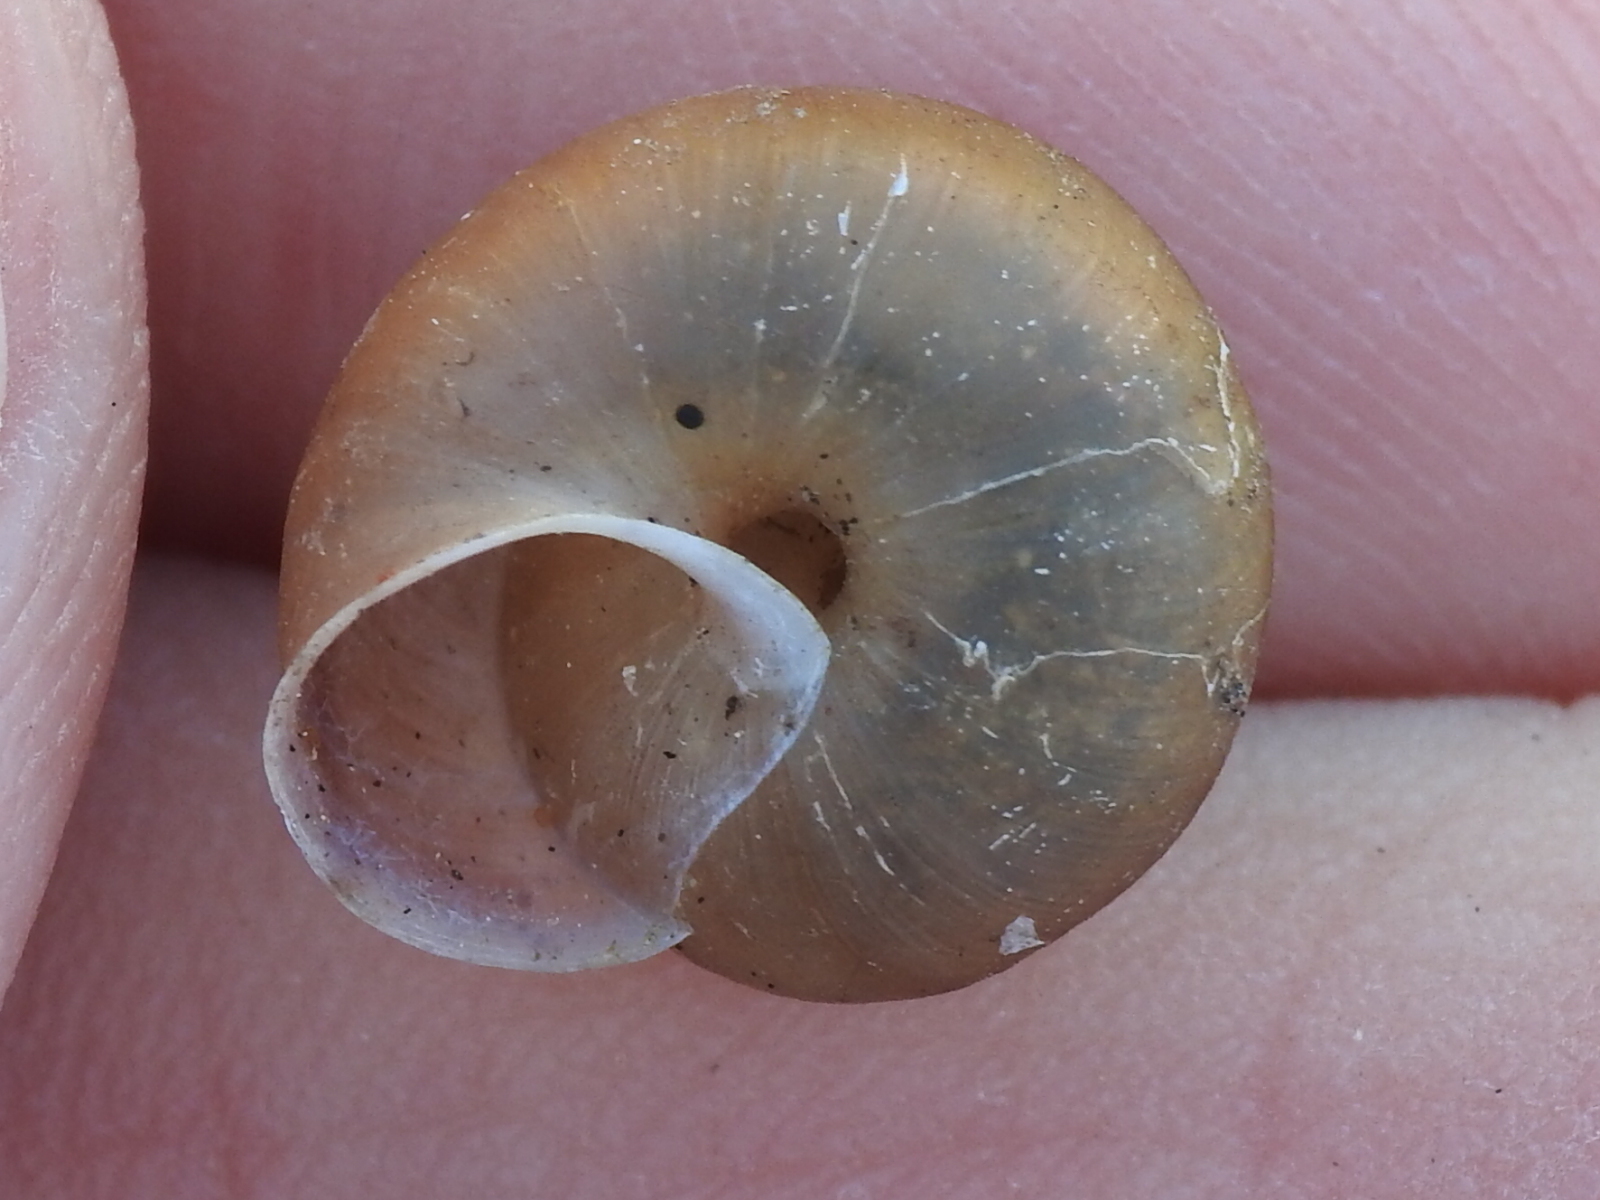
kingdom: Animalia
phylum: Mollusca
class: Gastropoda
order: Stylommatophora
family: Camaenidae
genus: Bradybaena
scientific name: Bradybaena similaris
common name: Asian trampsnail
